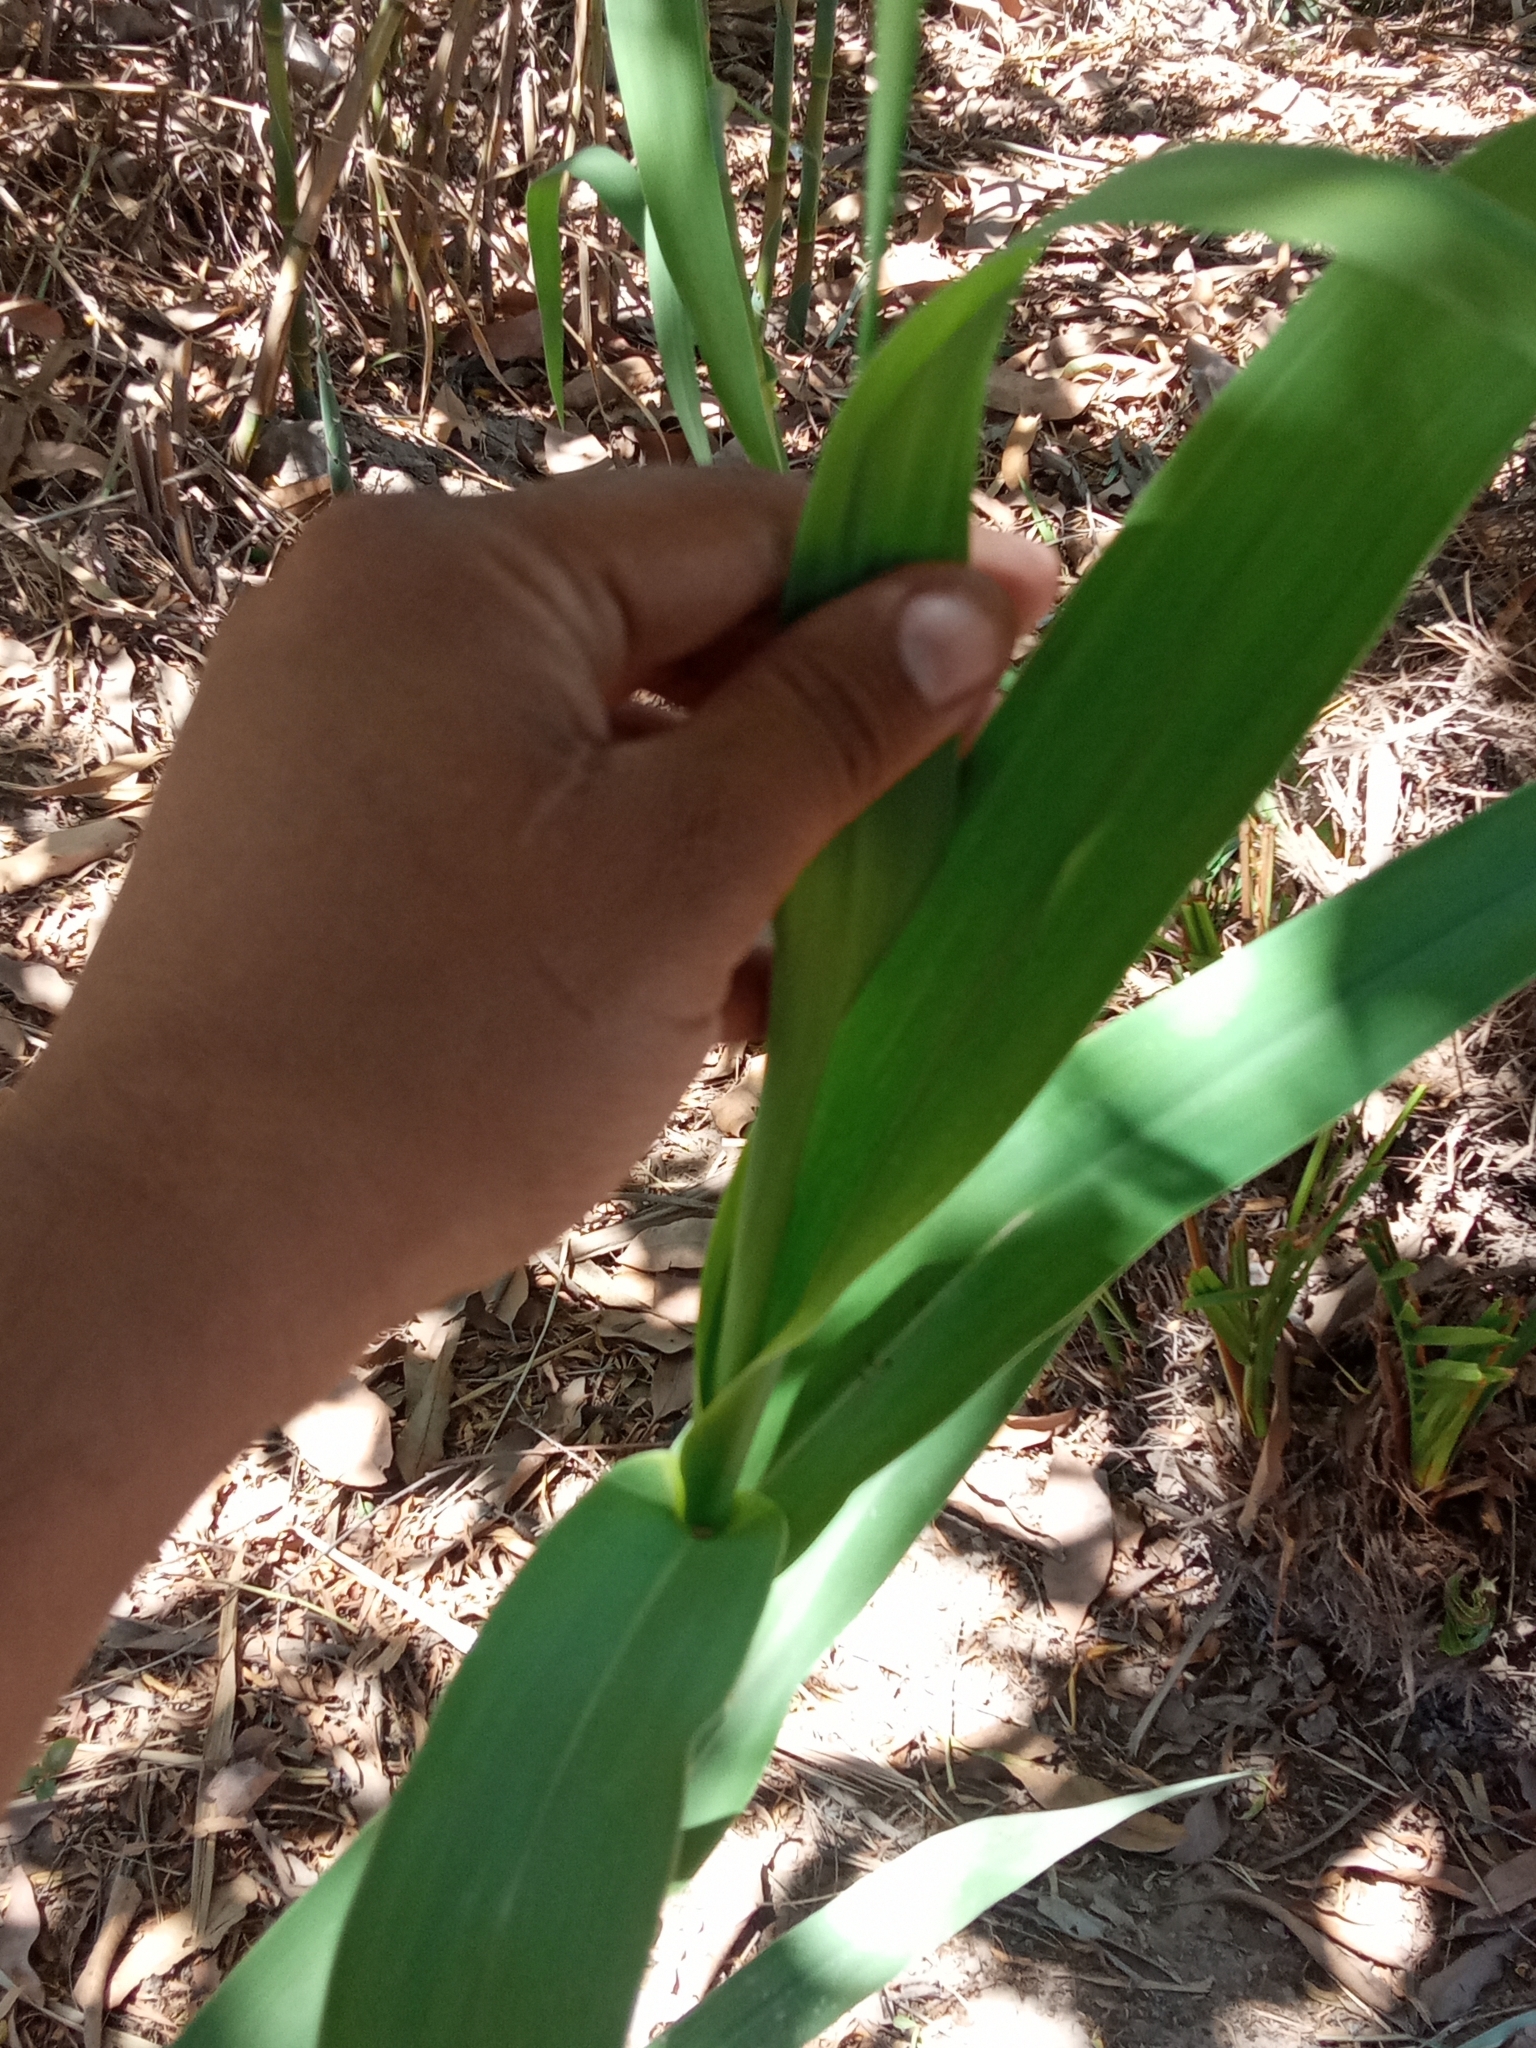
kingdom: Plantae
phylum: Tracheophyta
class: Liliopsida
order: Poales
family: Poaceae
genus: Arundo
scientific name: Arundo donax
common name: Giant reed
